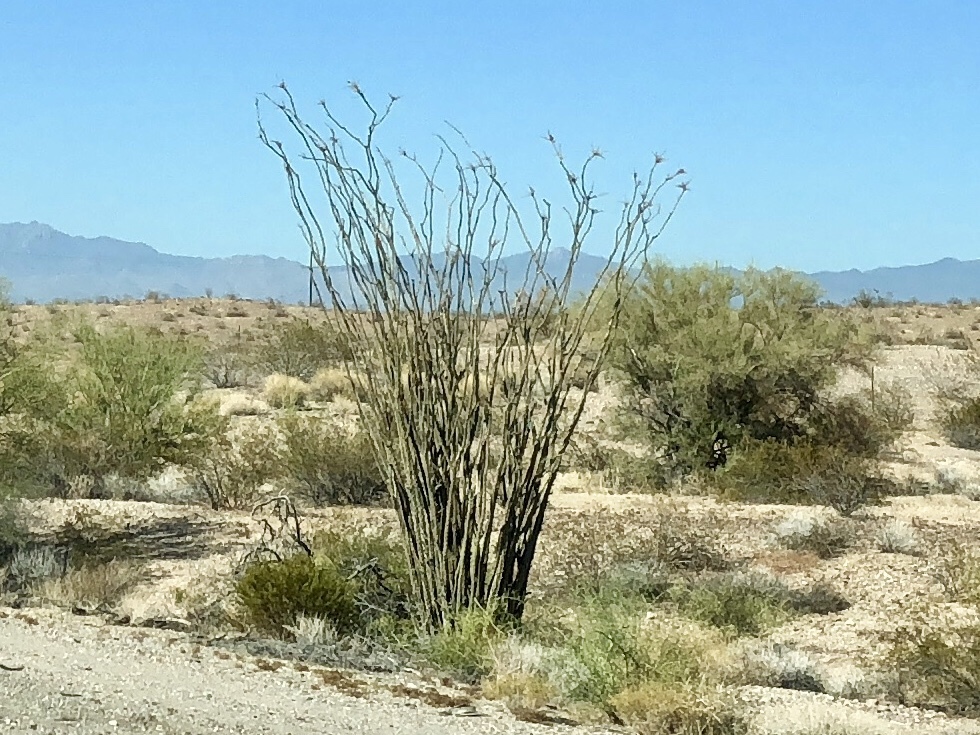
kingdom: Plantae
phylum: Tracheophyta
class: Magnoliopsida
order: Ericales
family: Fouquieriaceae
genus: Fouquieria
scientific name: Fouquieria splendens
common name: Vine-cactus
